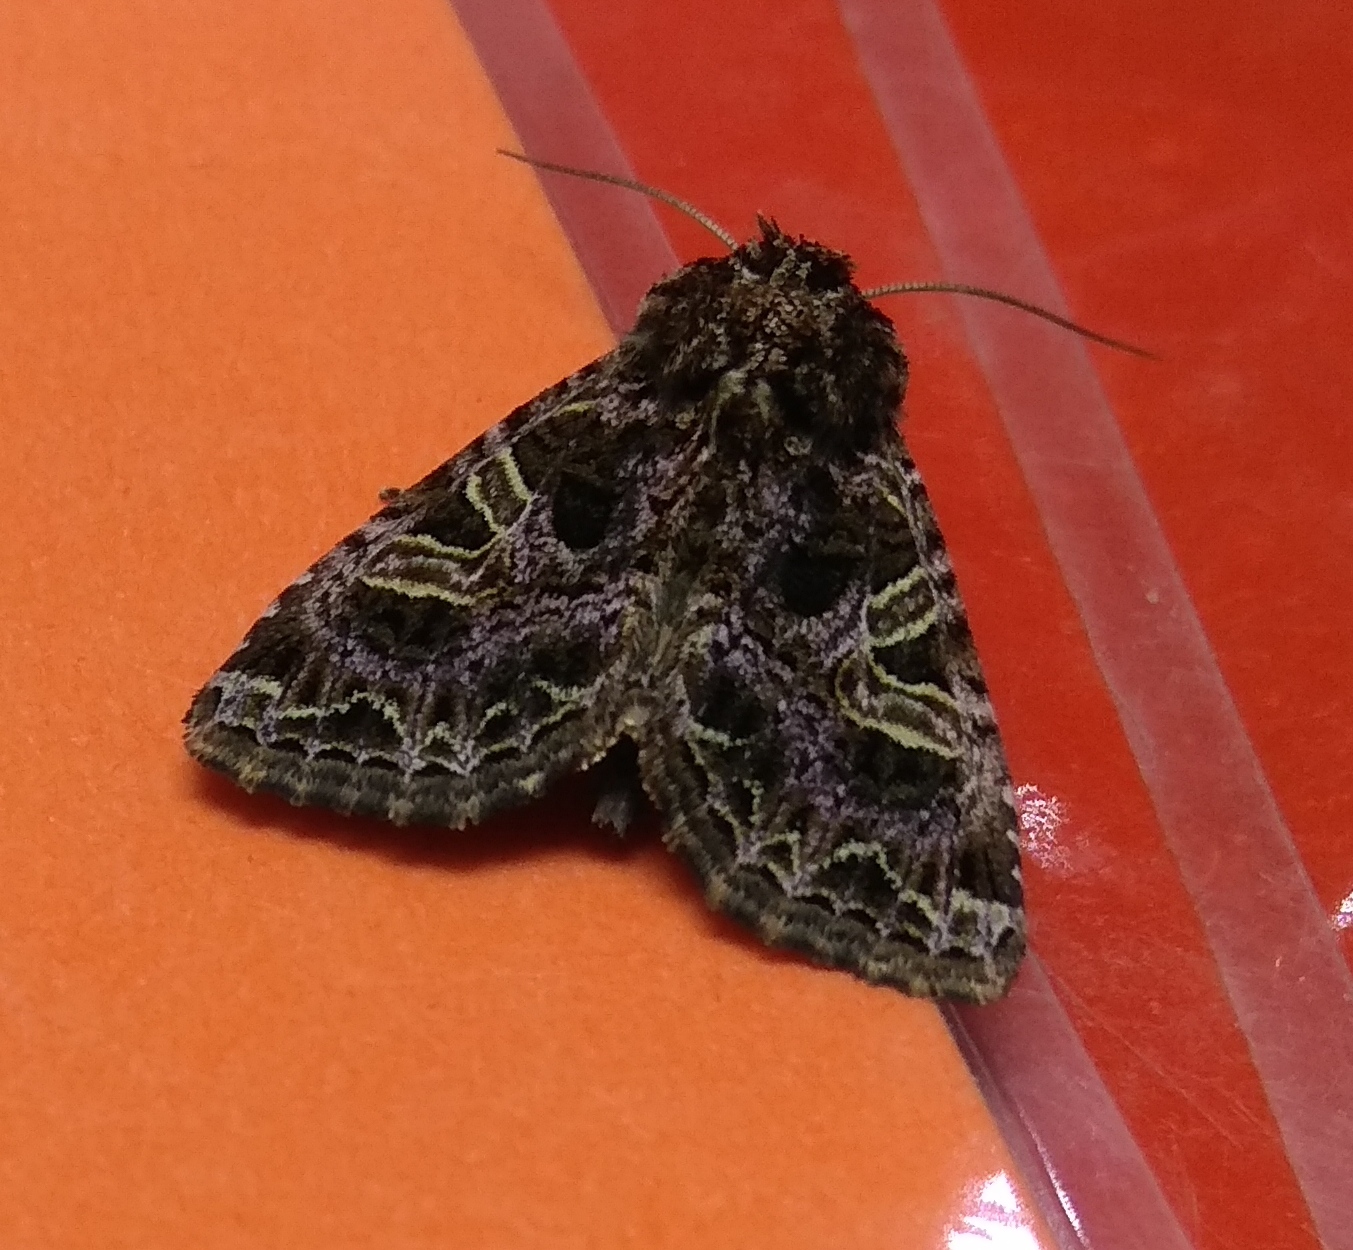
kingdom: Animalia
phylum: Arthropoda
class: Insecta
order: Lepidoptera
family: Noctuidae
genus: Sideridis
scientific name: Sideridis rivularis
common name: Campion
